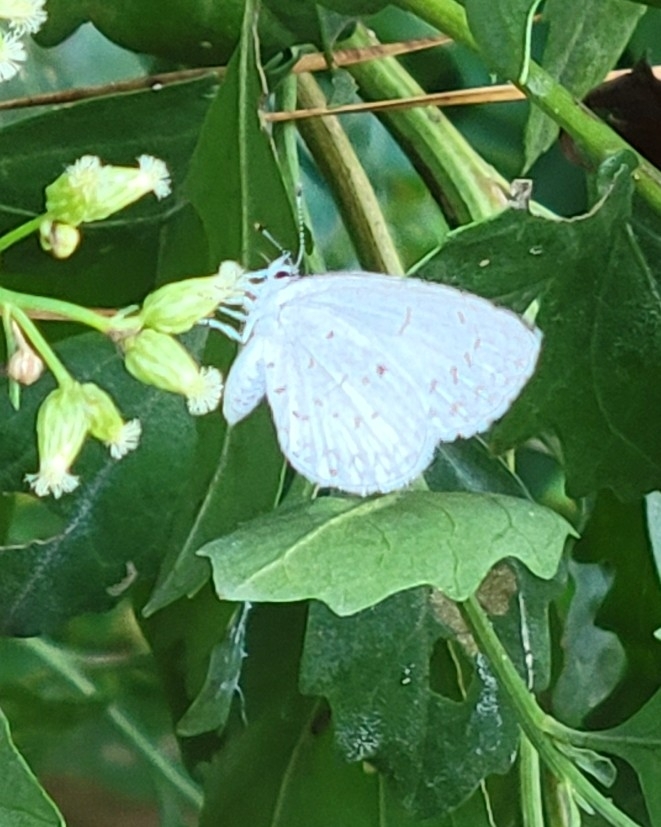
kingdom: Animalia
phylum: Arthropoda
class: Insecta
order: Lepidoptera
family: Lycaenidae
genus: Cyaniris
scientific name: Cyaniris neglecta
